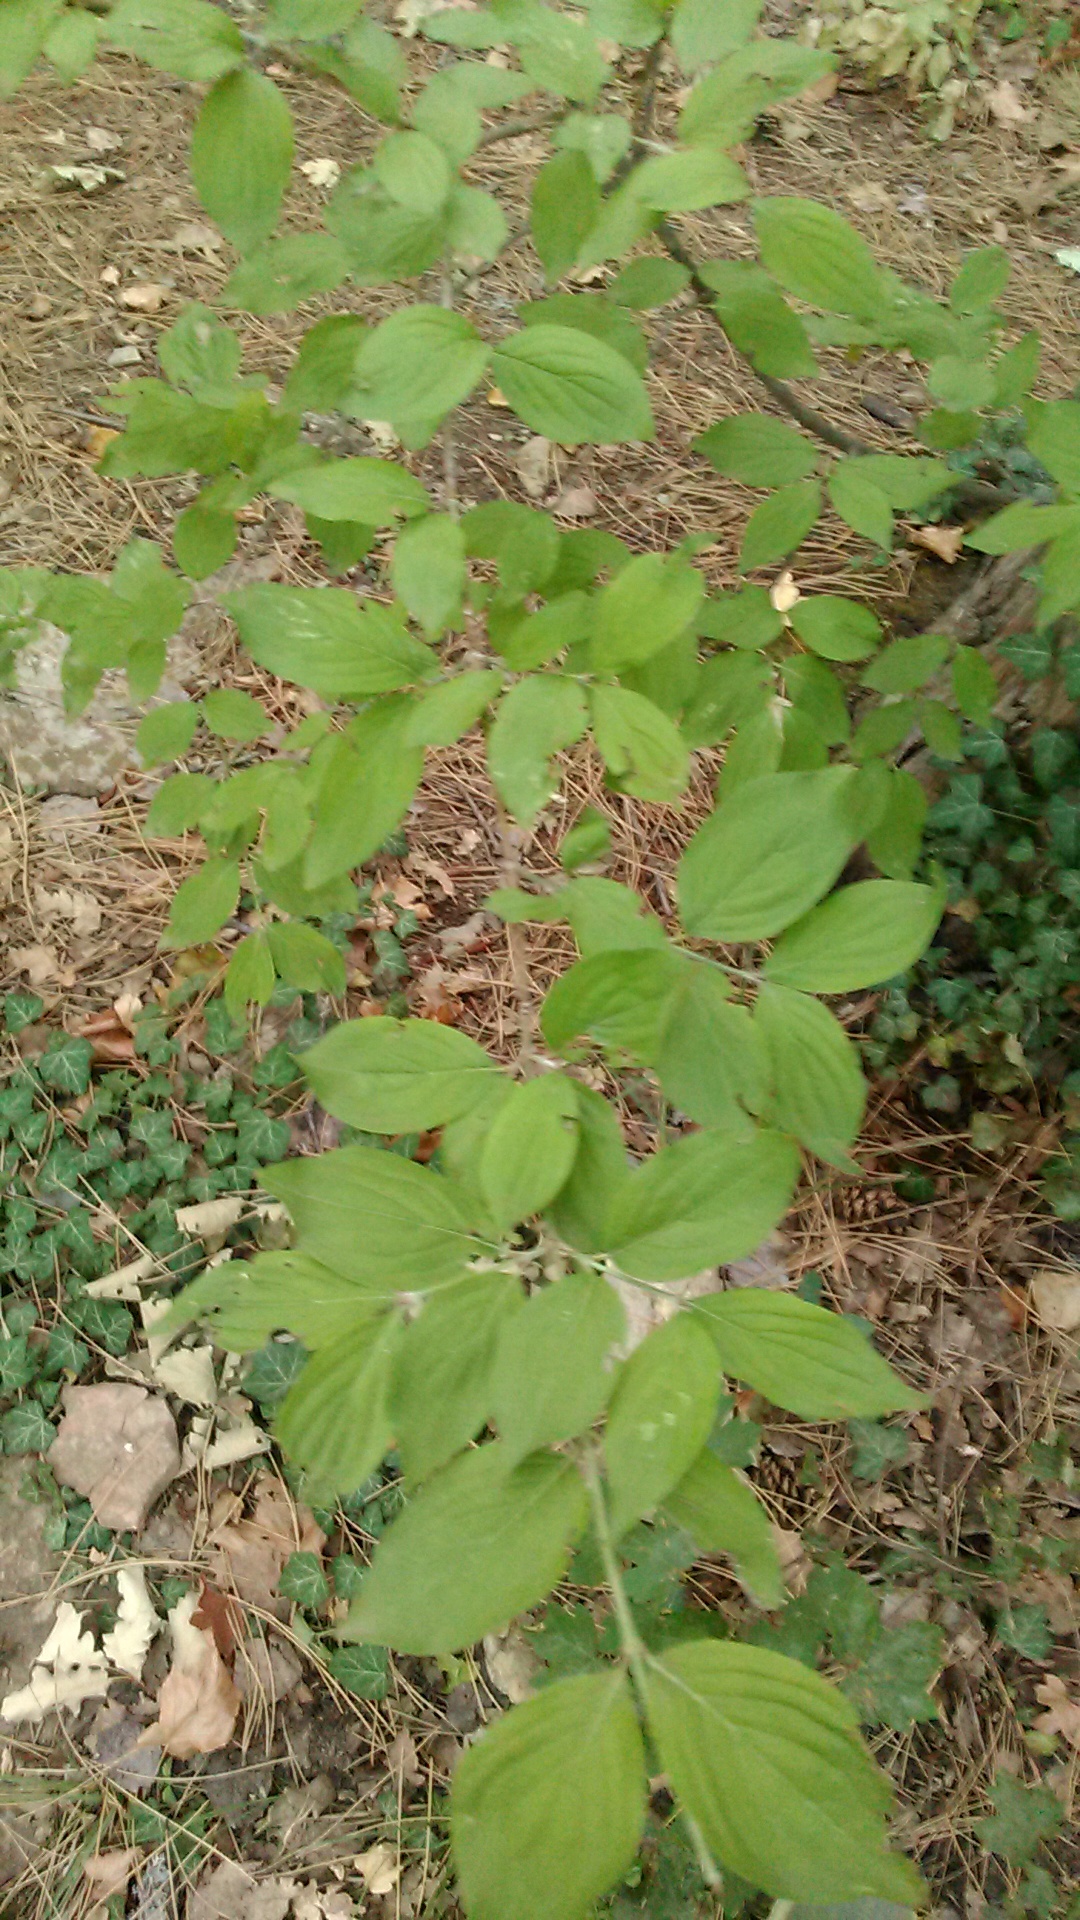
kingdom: Plantae
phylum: Tracheophyta
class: Magnoliopsida
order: Cornales
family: Cornaceae
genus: Cornus
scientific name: Cornus mas
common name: Cornelian-cherry
